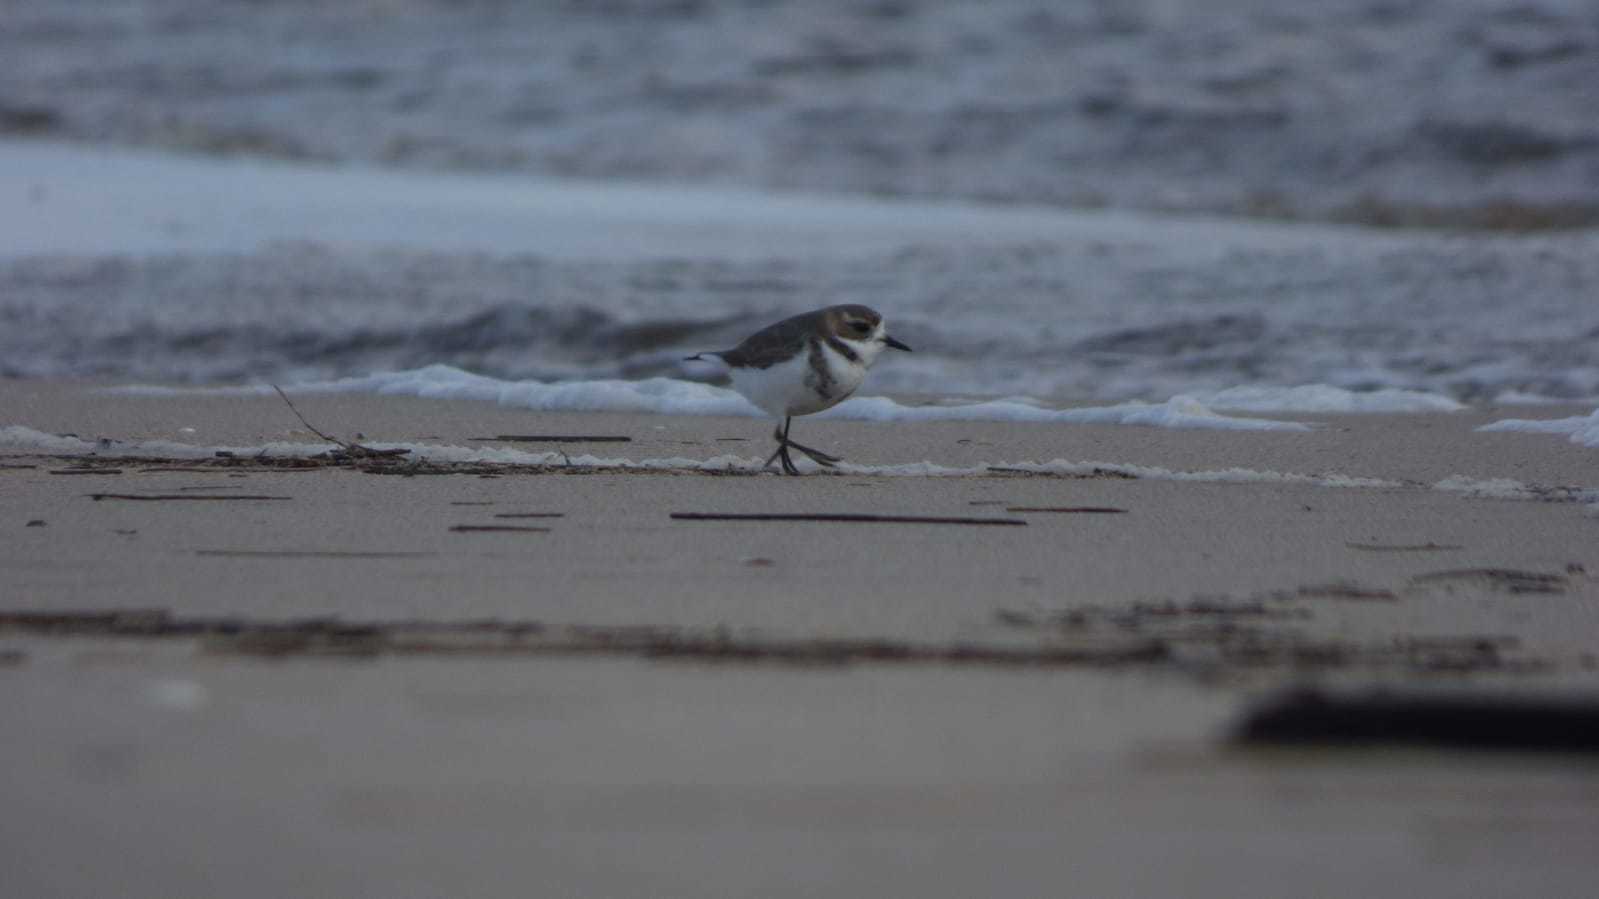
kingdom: Animalia
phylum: Chordata
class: Aves
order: Charadriiformes
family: Charadriidae
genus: Anarhynchus
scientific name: Anarhynchus
